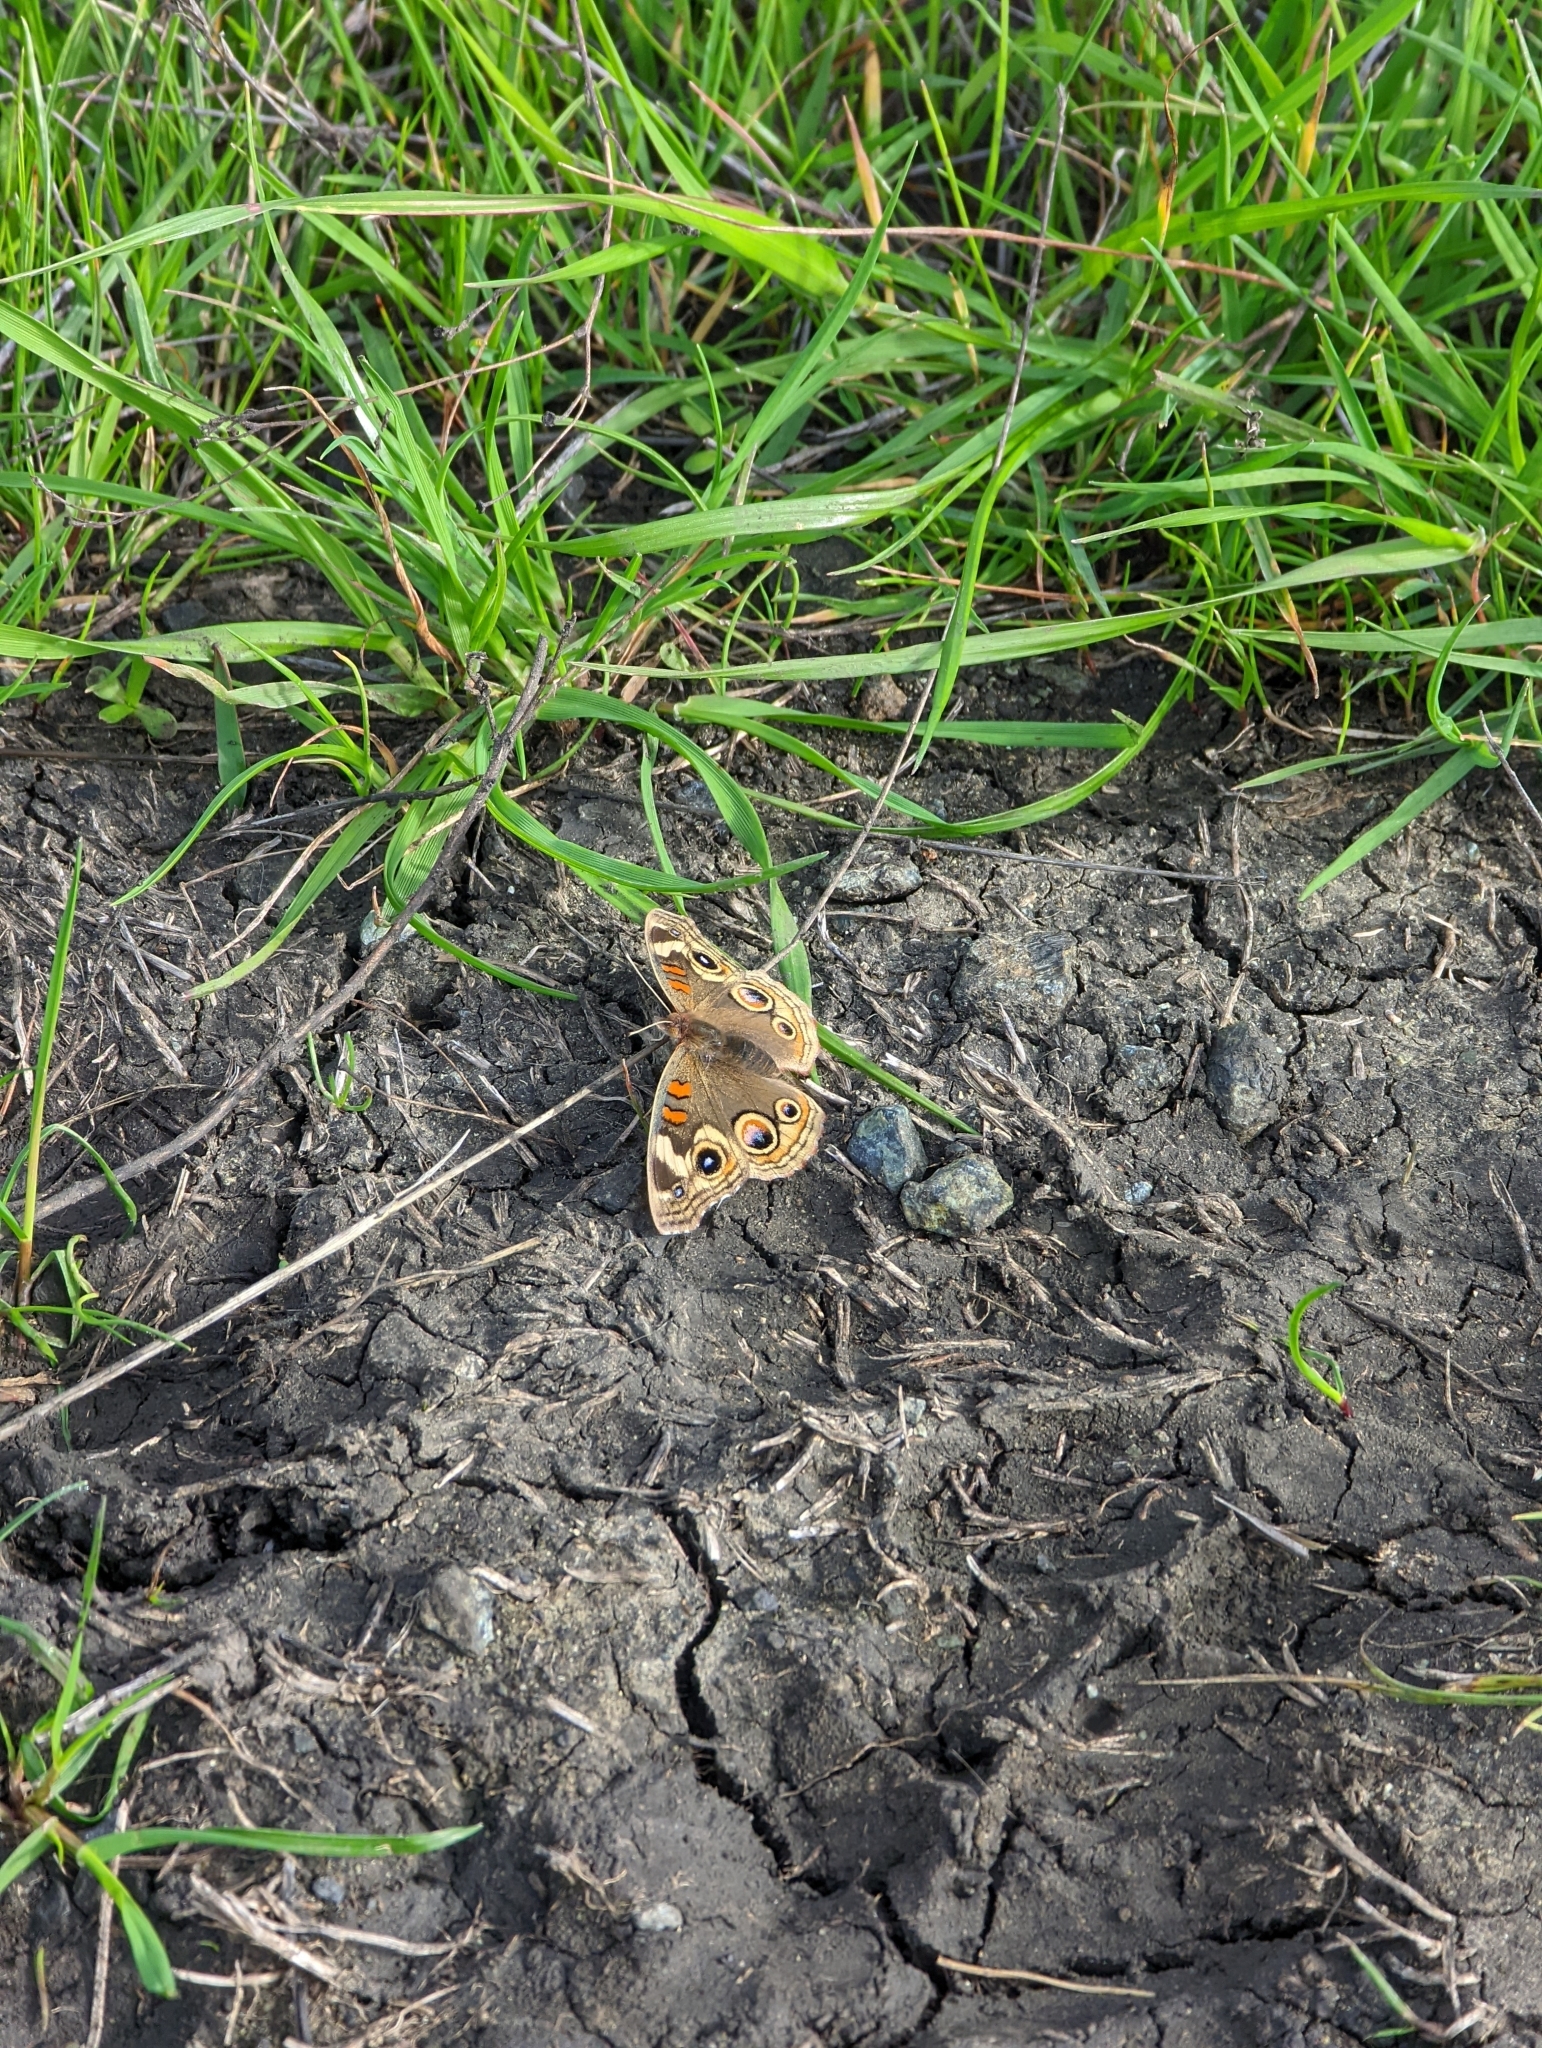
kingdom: Animalia
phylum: Arthropoda
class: Insecta
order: Lepidoptera
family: Nymphalidae
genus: Junonia
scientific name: Junonia grisea
